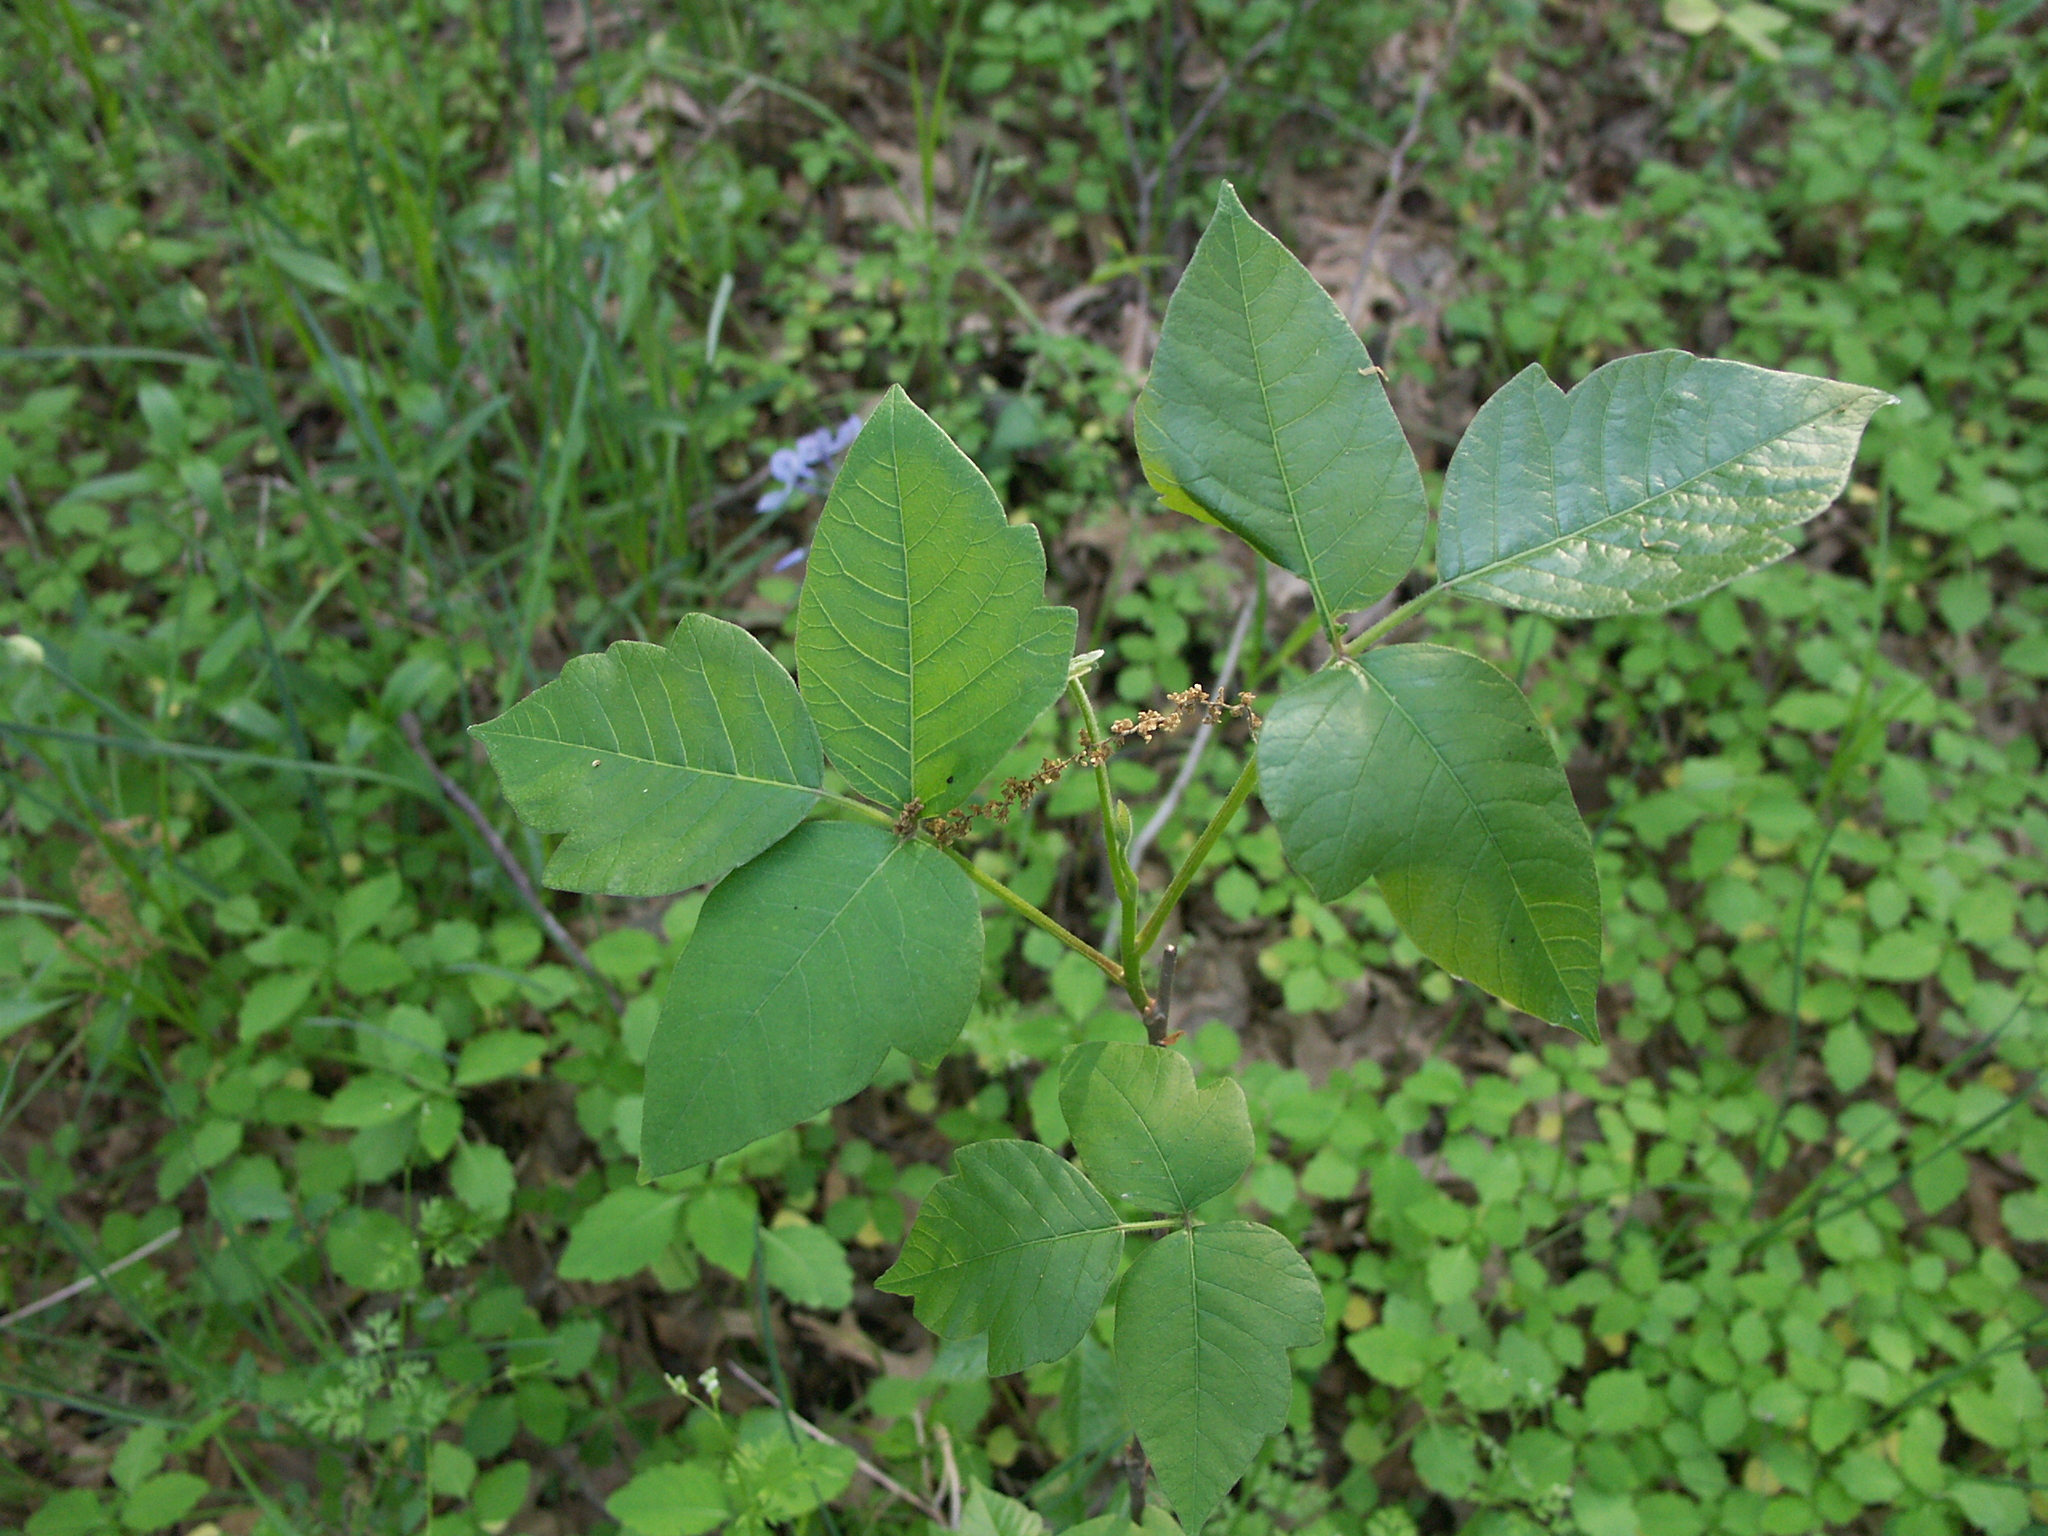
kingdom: Plantae
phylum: Tracheophyta
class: Magnoliopsida
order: Sapindales
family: Anacardiaceae
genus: Toxicodendron
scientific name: Toxicodendron radicans
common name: Poison ivy
